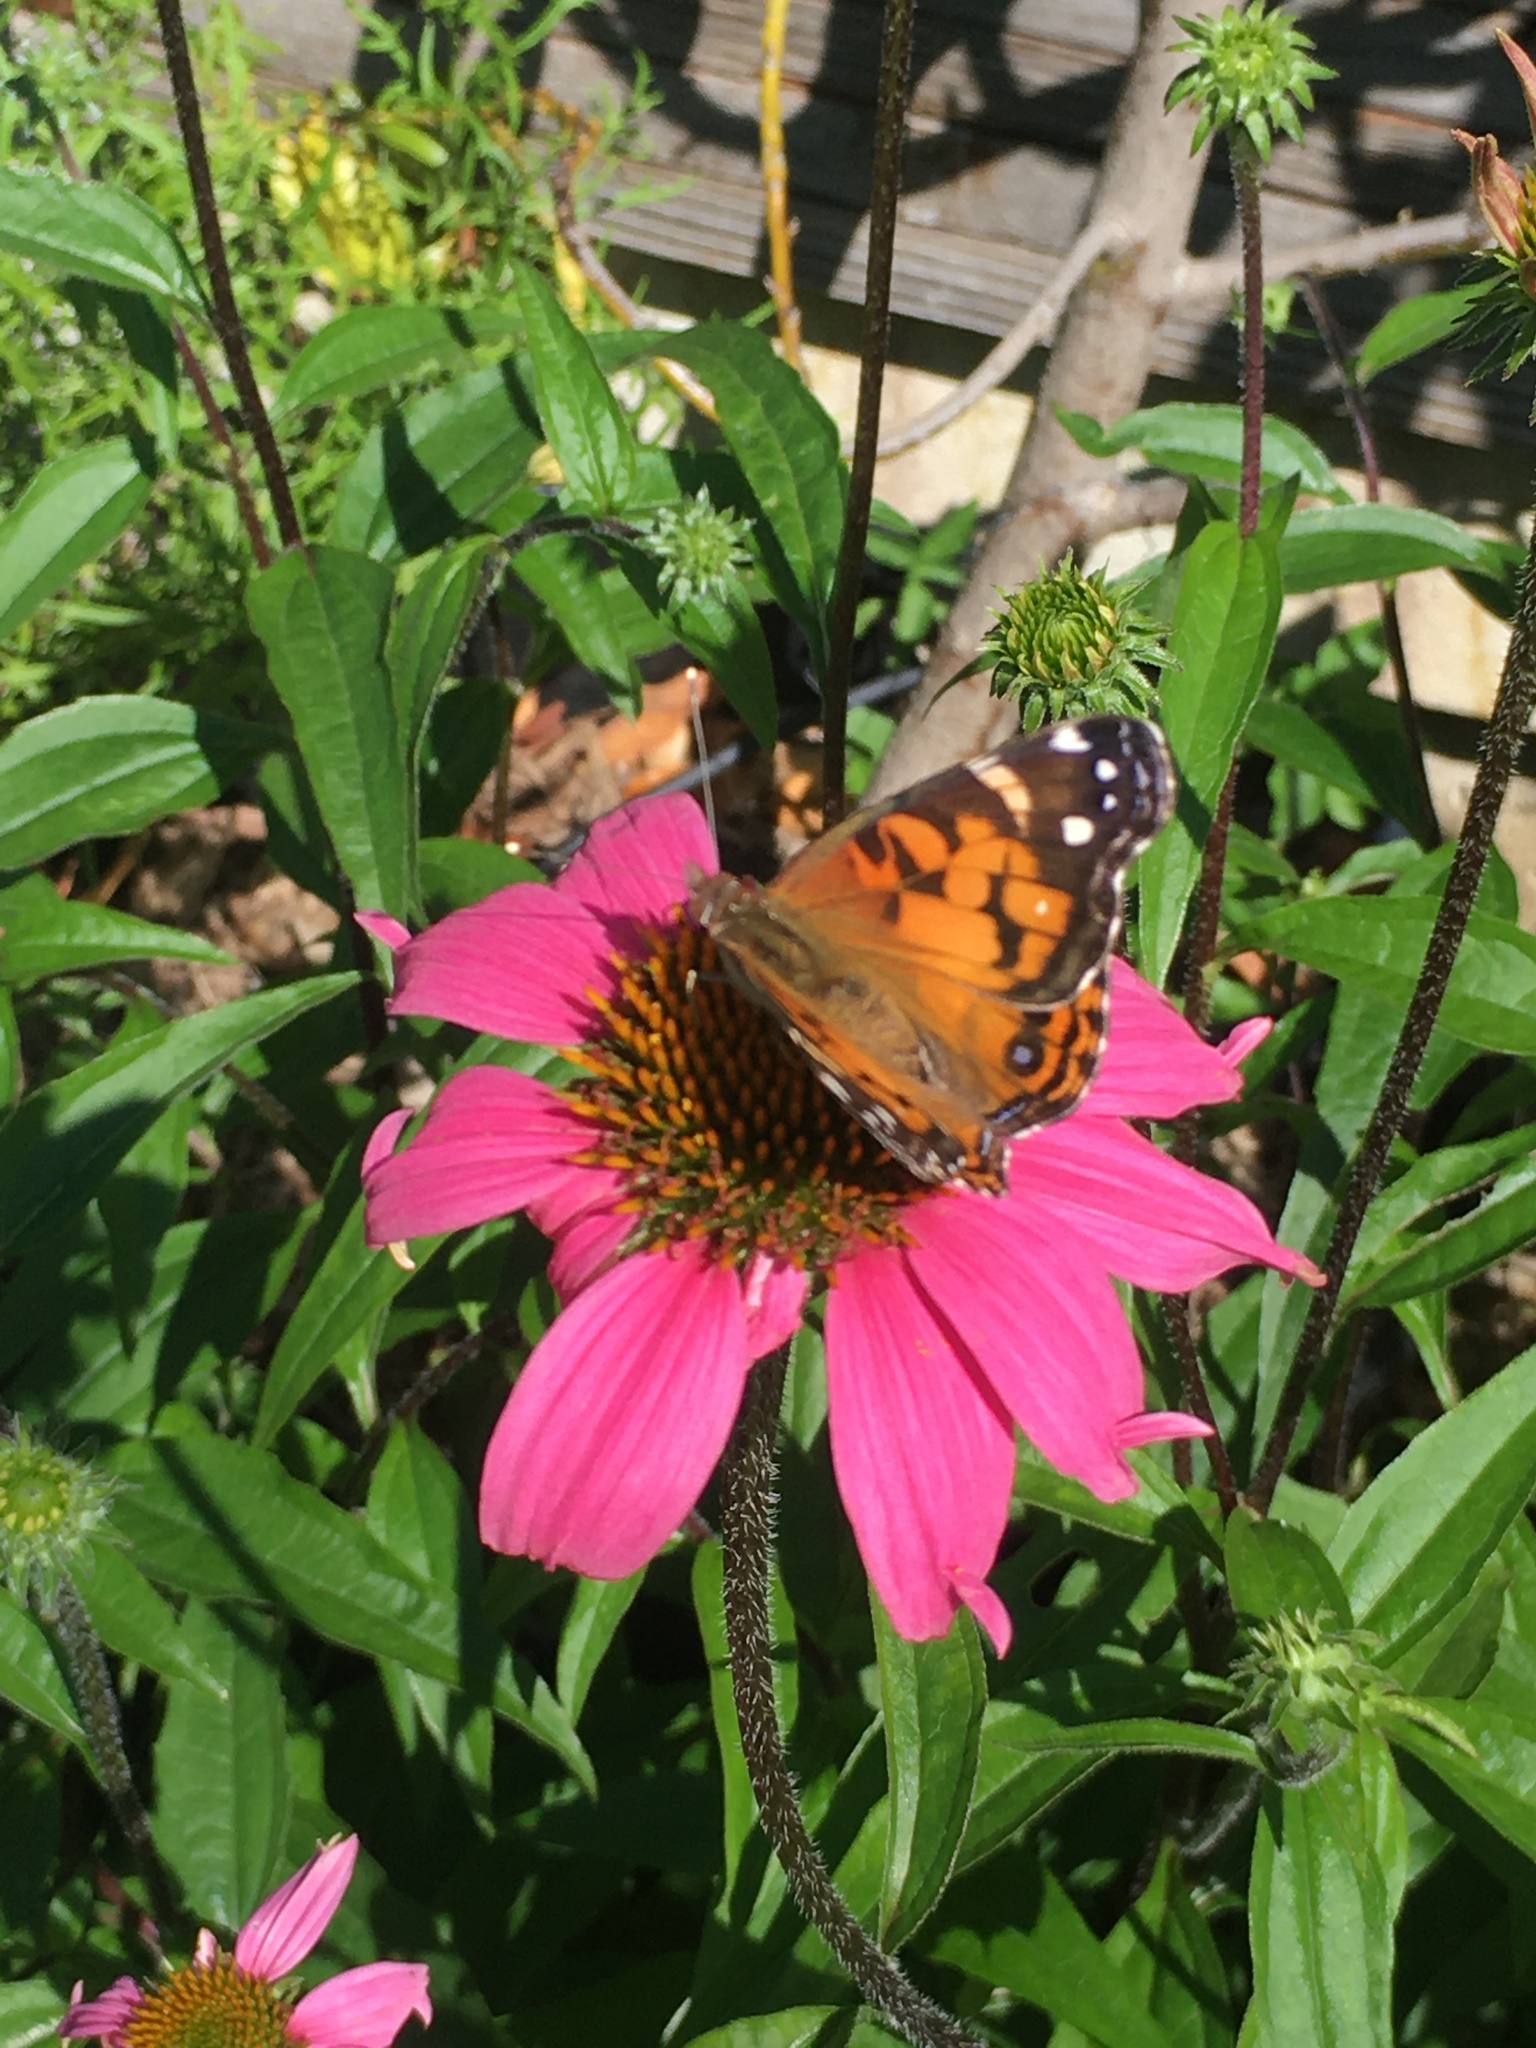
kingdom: Animalia
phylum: Arthropoda
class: Insecta
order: Lepidoptera
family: Nymphalidae
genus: Vanessa
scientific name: Vanessa virginiensis
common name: American lady
